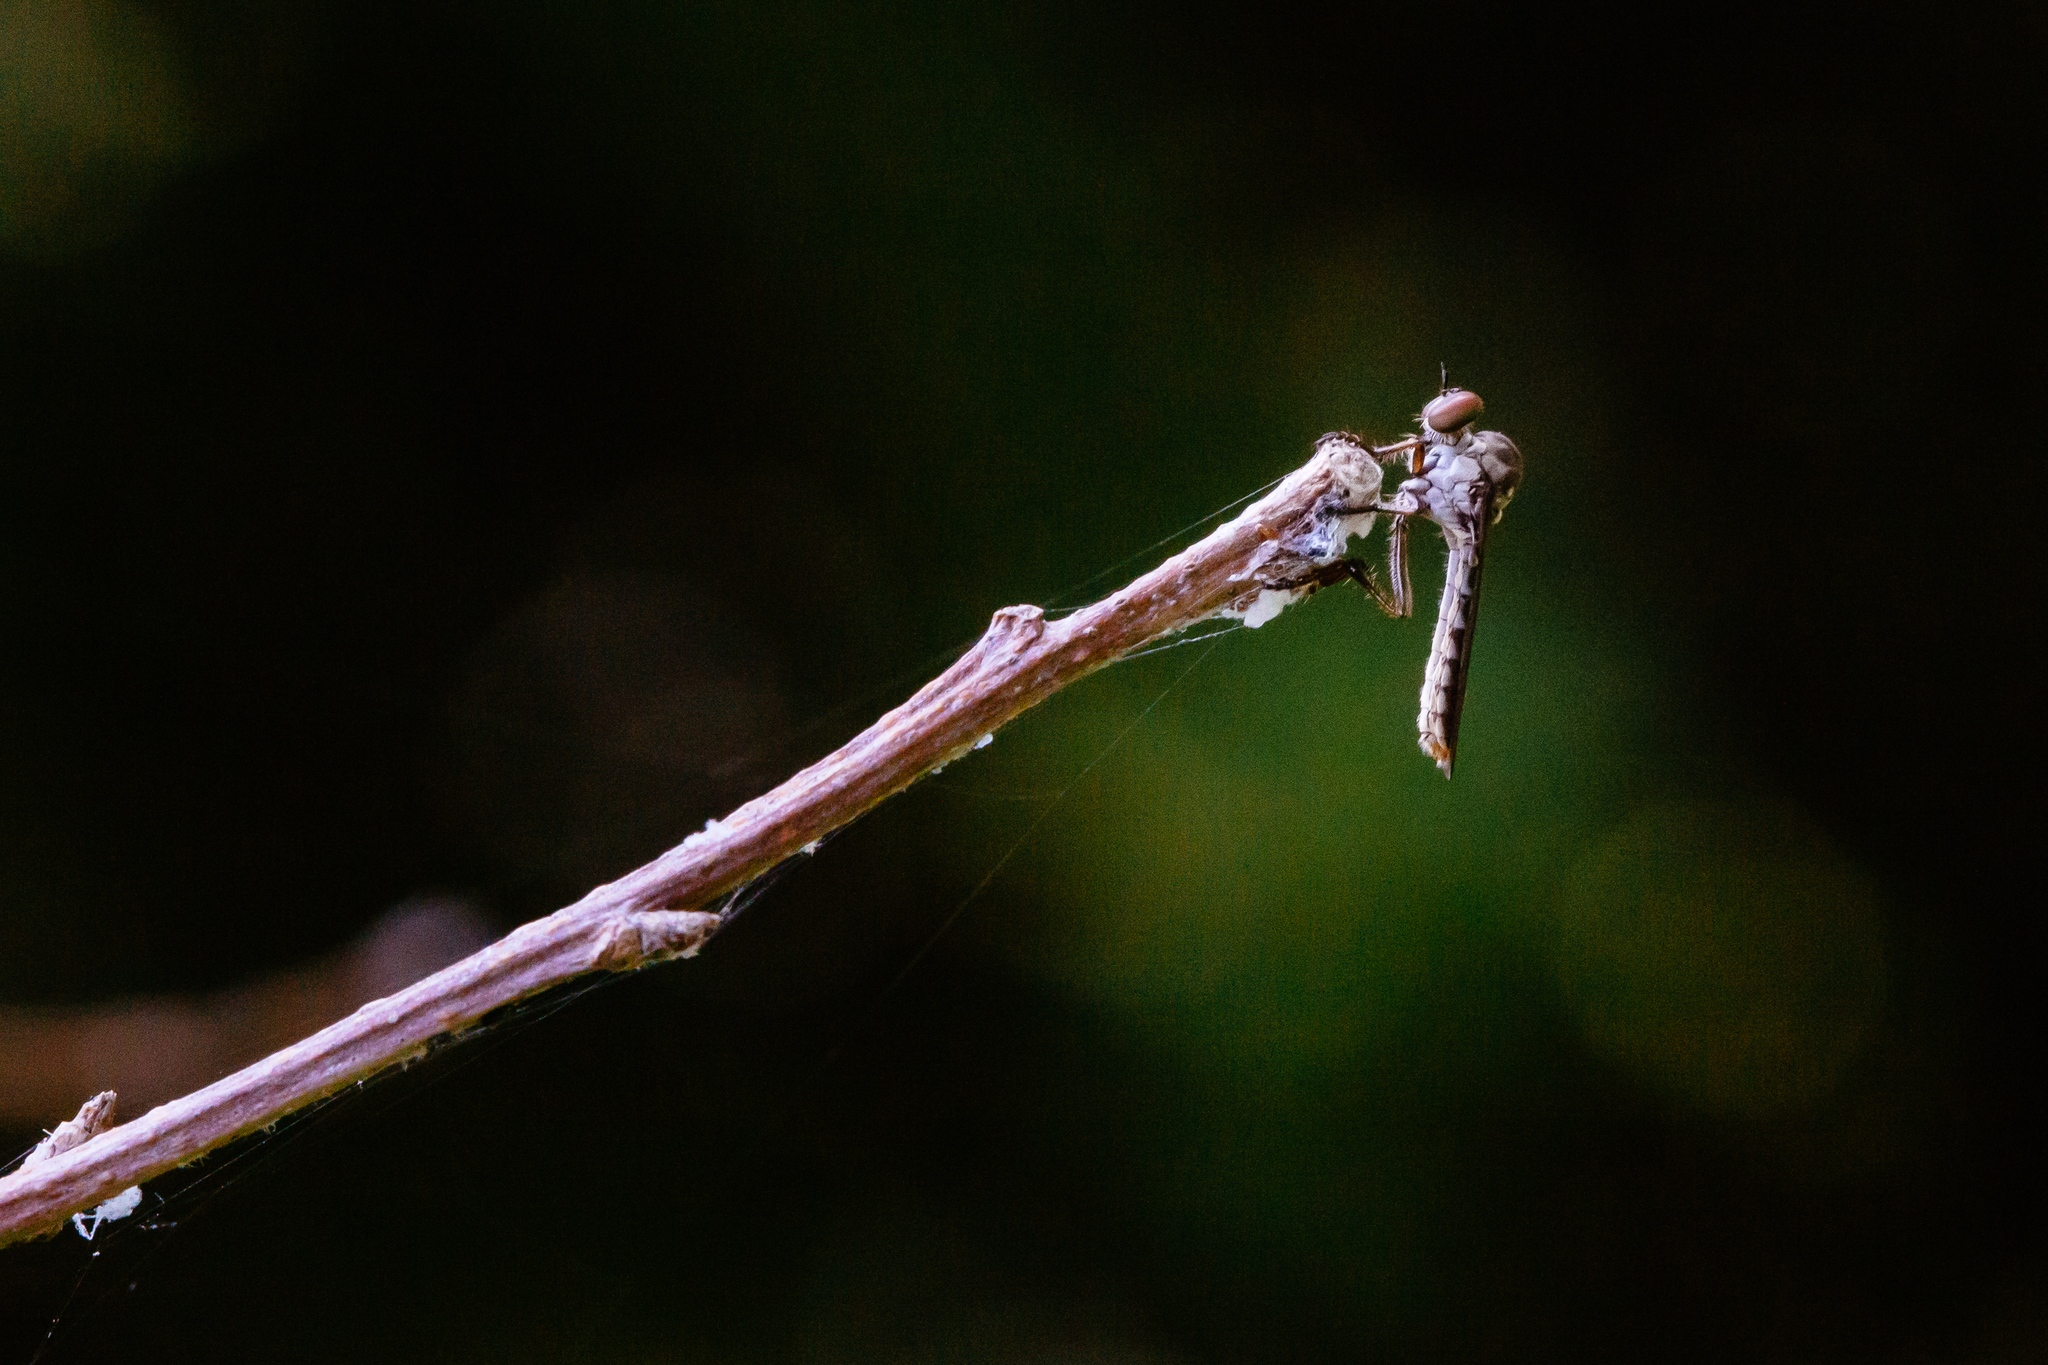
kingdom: Animalia
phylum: Arthropoda
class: Insecta
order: Diptera
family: Asilidae
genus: Holcocephala
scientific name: Holcocephala calva
